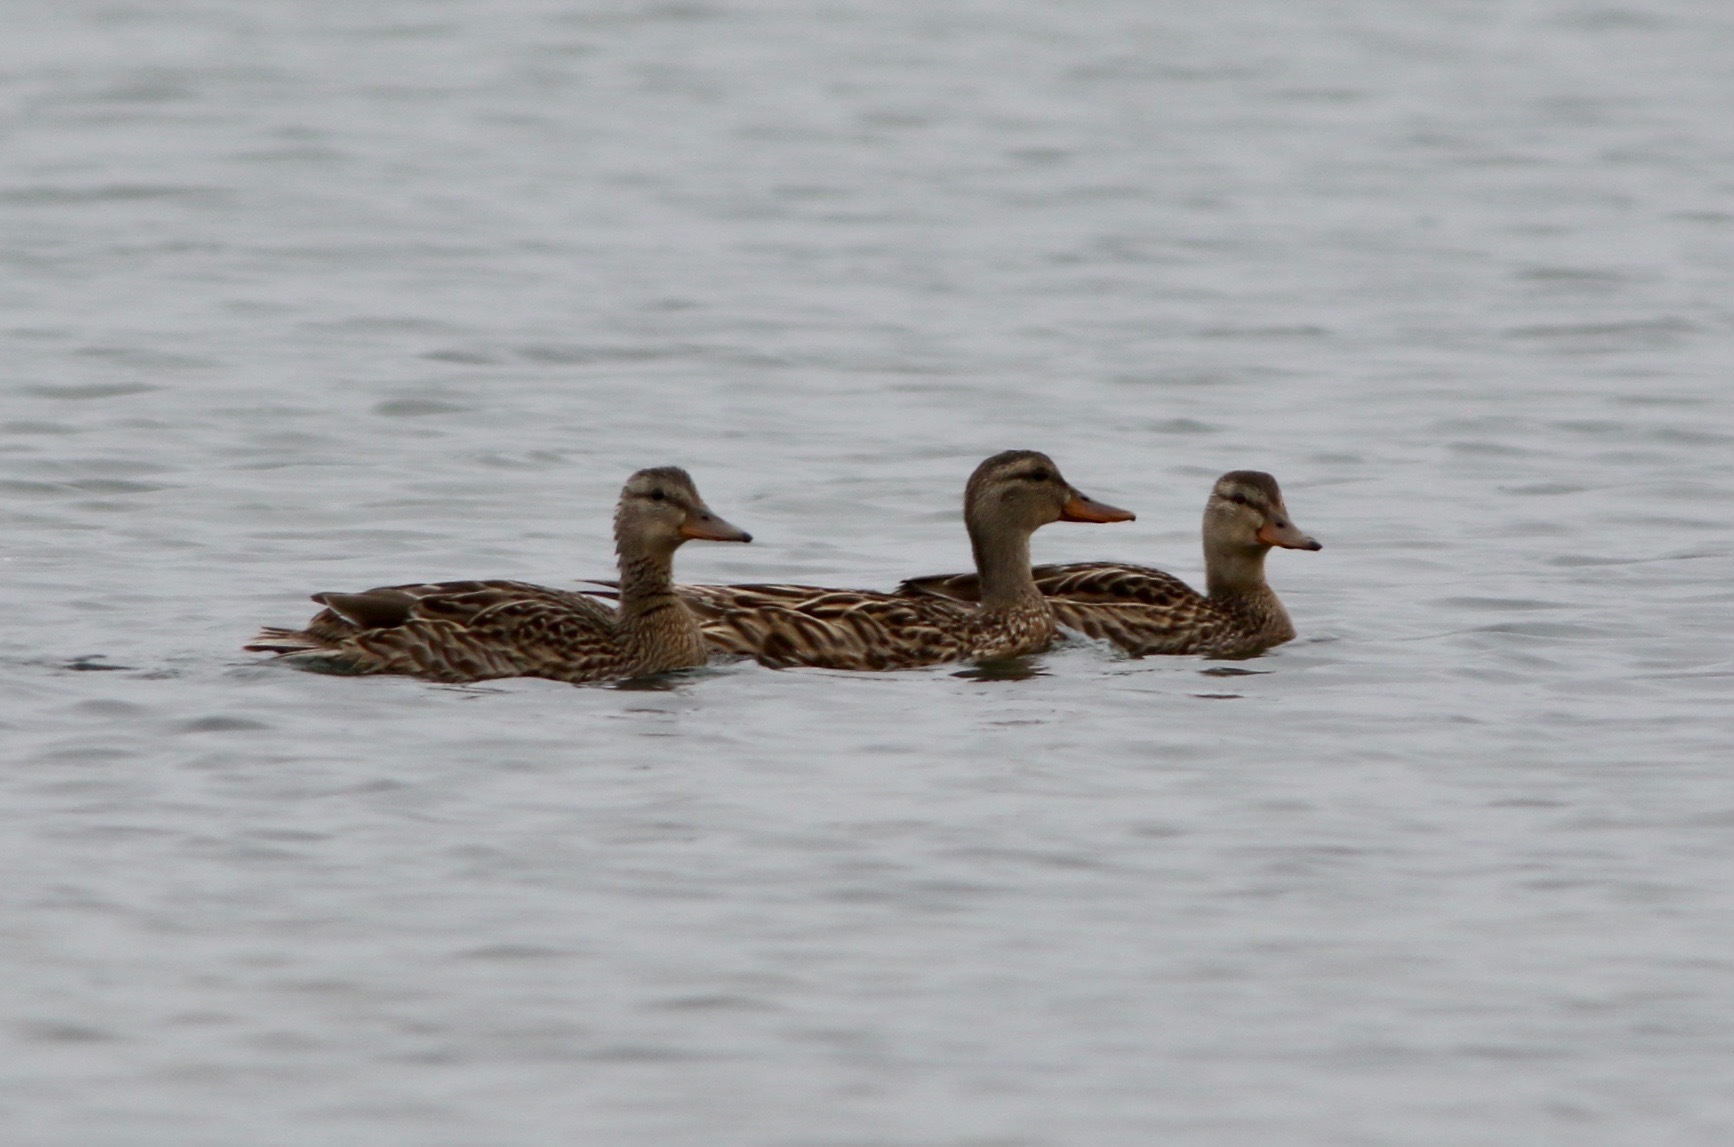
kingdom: Animalia
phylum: Chordata
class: Aves
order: Anseriformes
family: Anatidae
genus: Anas
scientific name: Anas platyrhynchos
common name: Mallard
